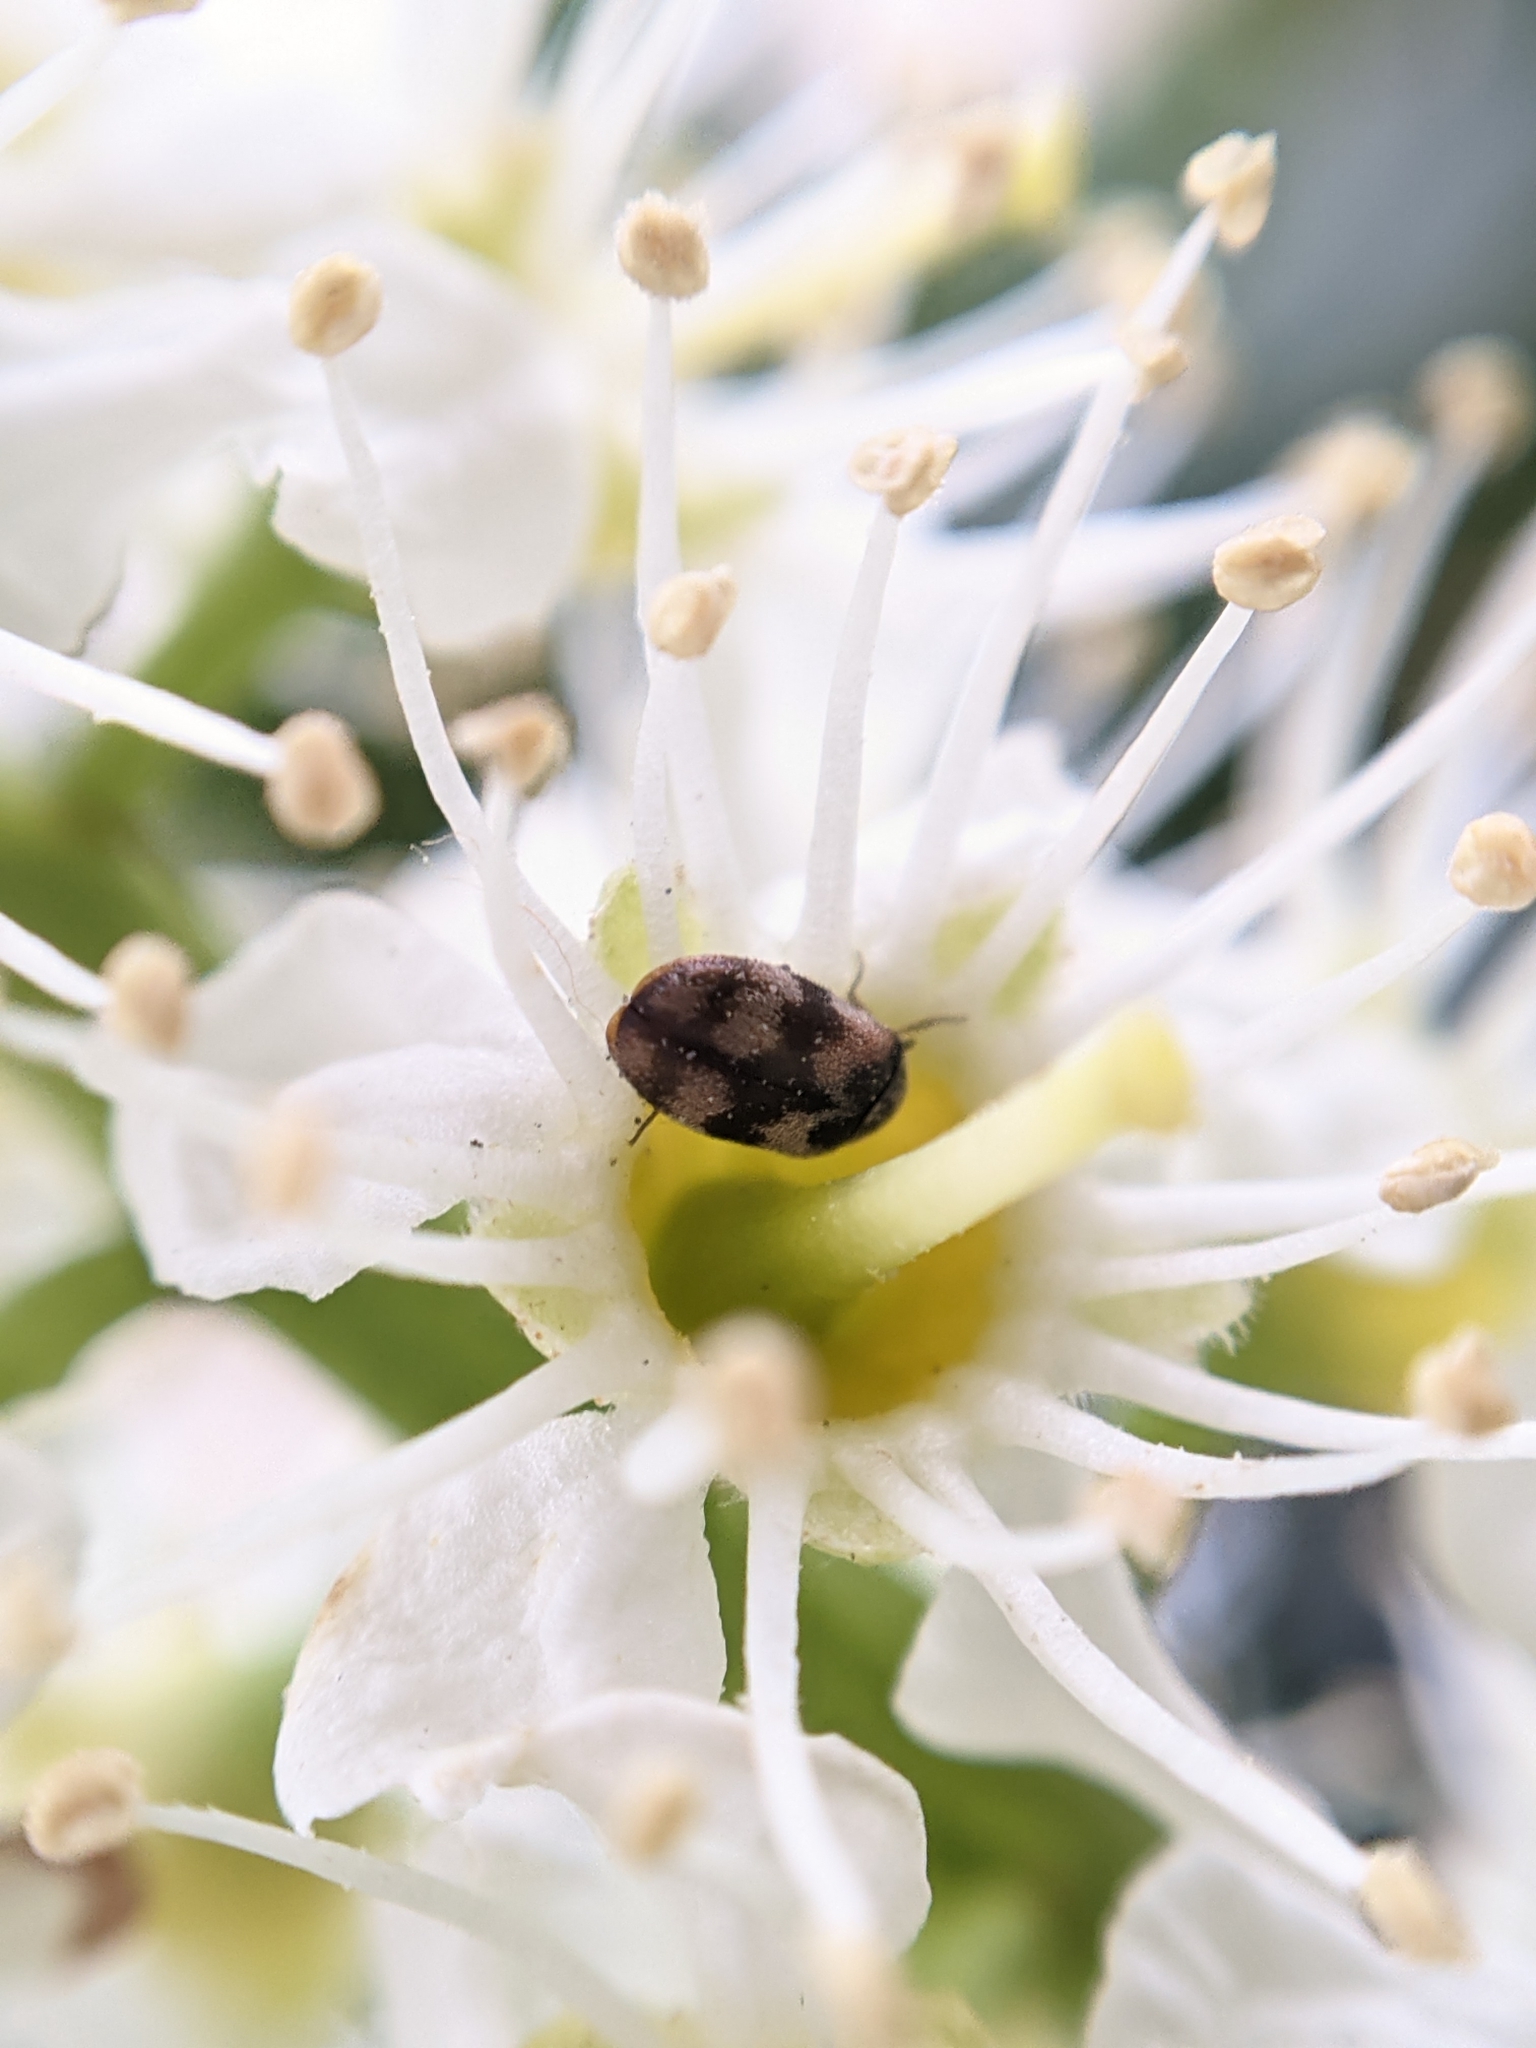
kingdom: Animalia
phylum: Arthropoda
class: Insecta
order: Coleoptera
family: Dermestidae
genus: Trogoderma
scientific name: Trogoderma angustum
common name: Skin beetle
